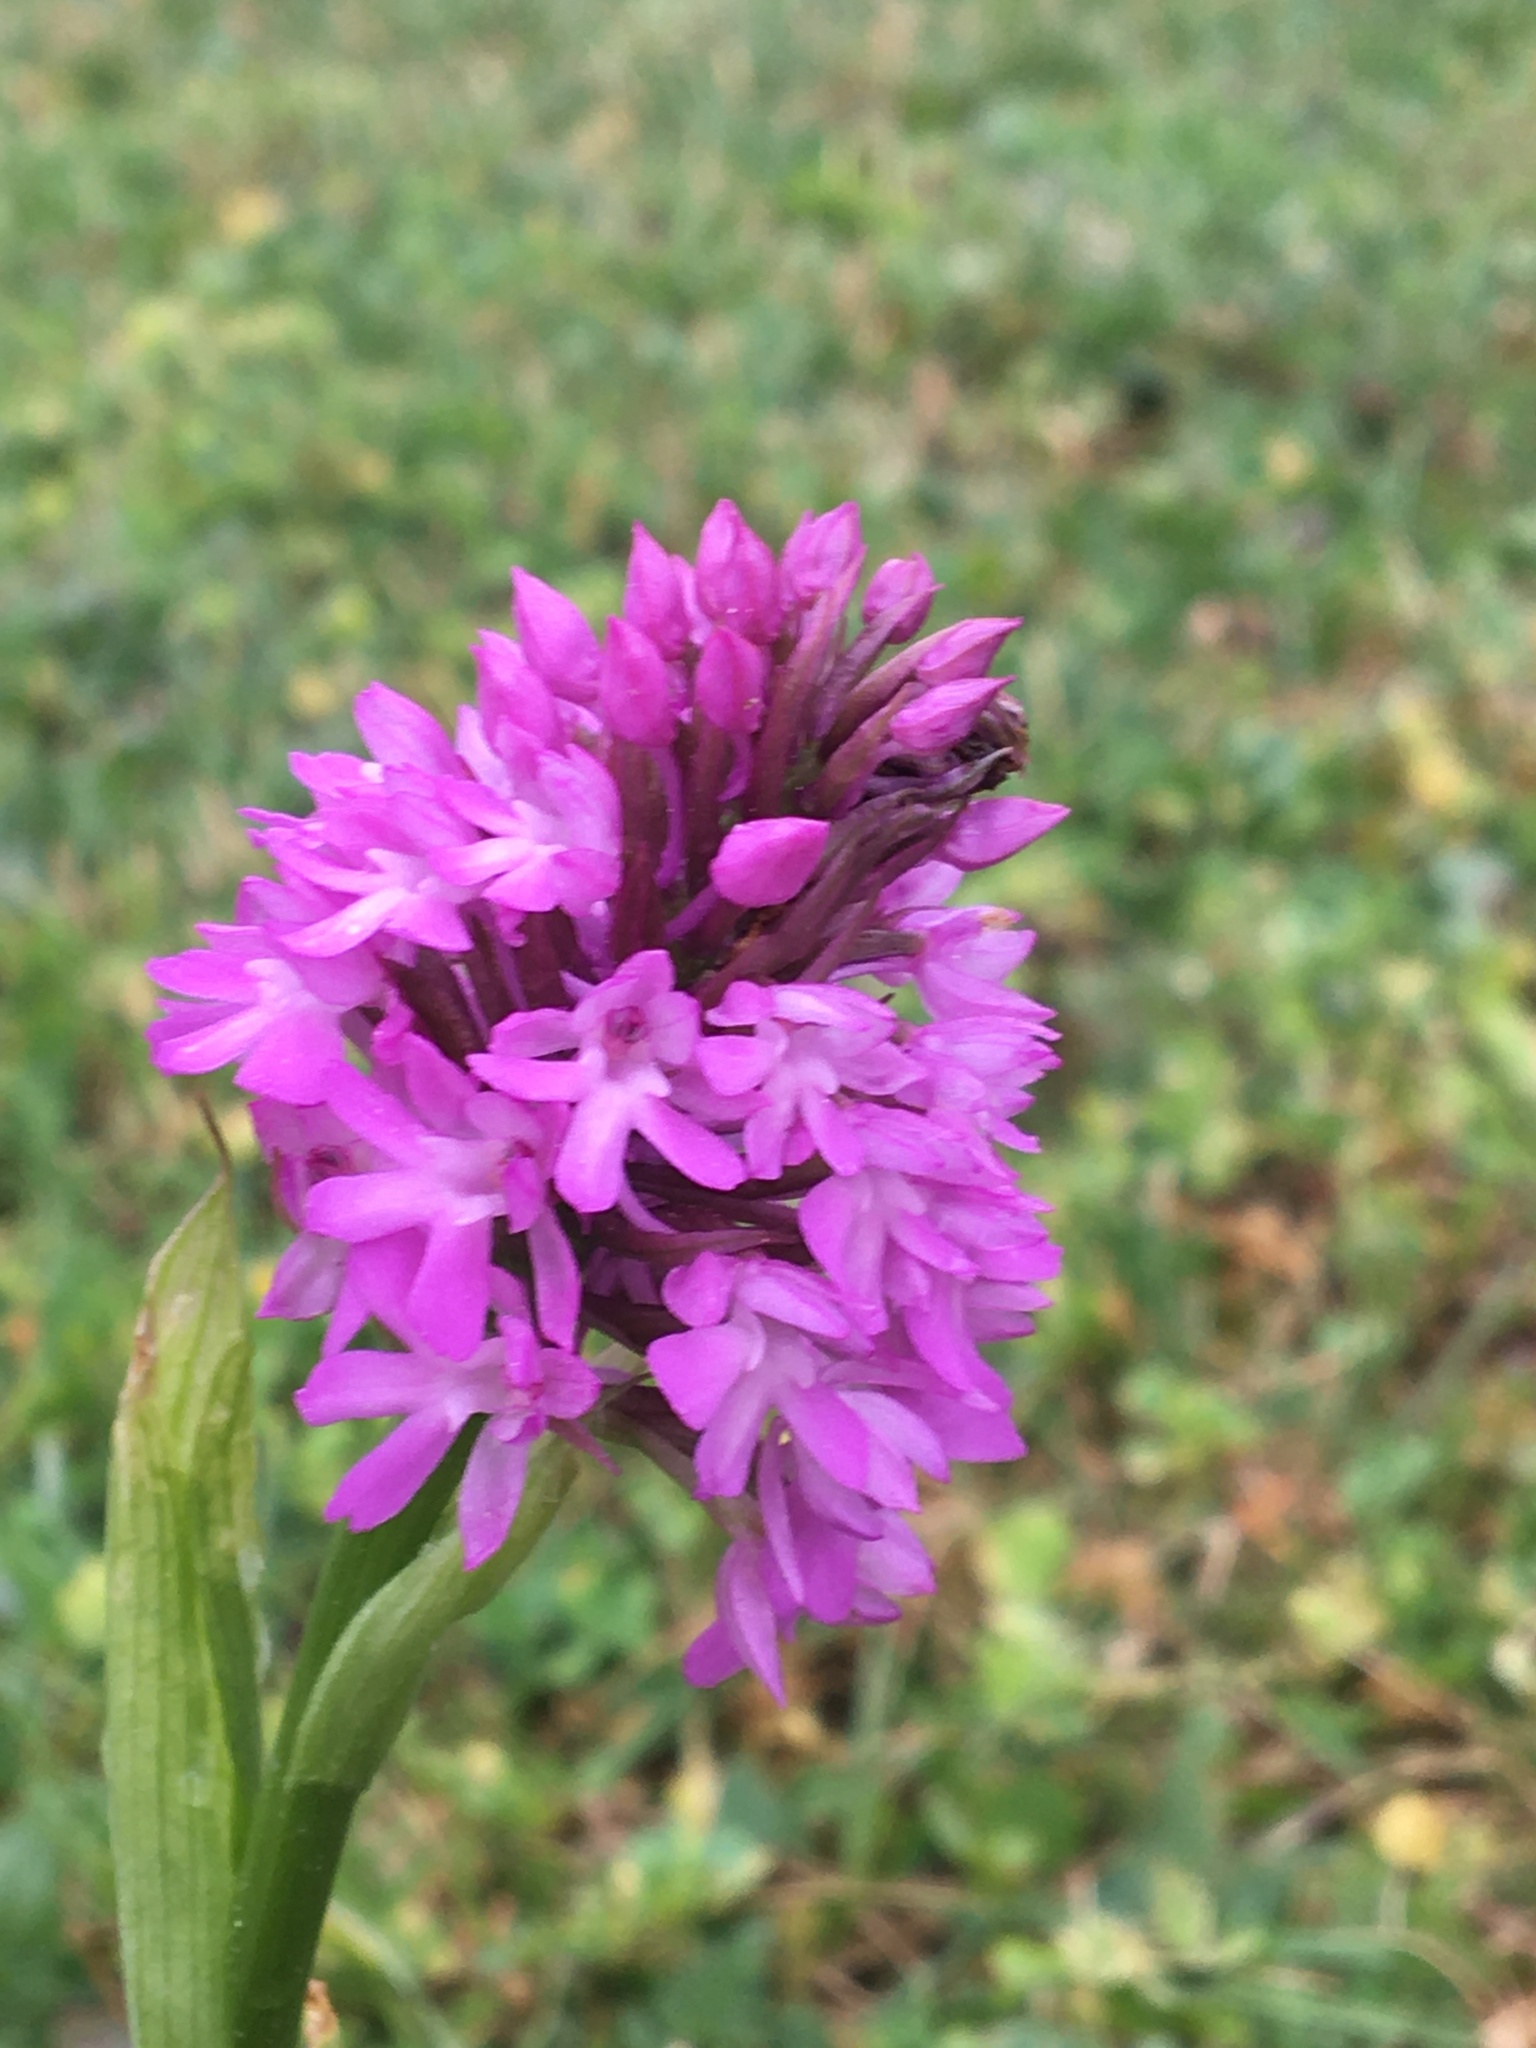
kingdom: Plantae
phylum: Tracheophyta
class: Liliopsida
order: Asparagales
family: Orchidaceae
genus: Anacamptis
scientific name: Anacamptis pyramidalis
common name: Pyramidal orchid
